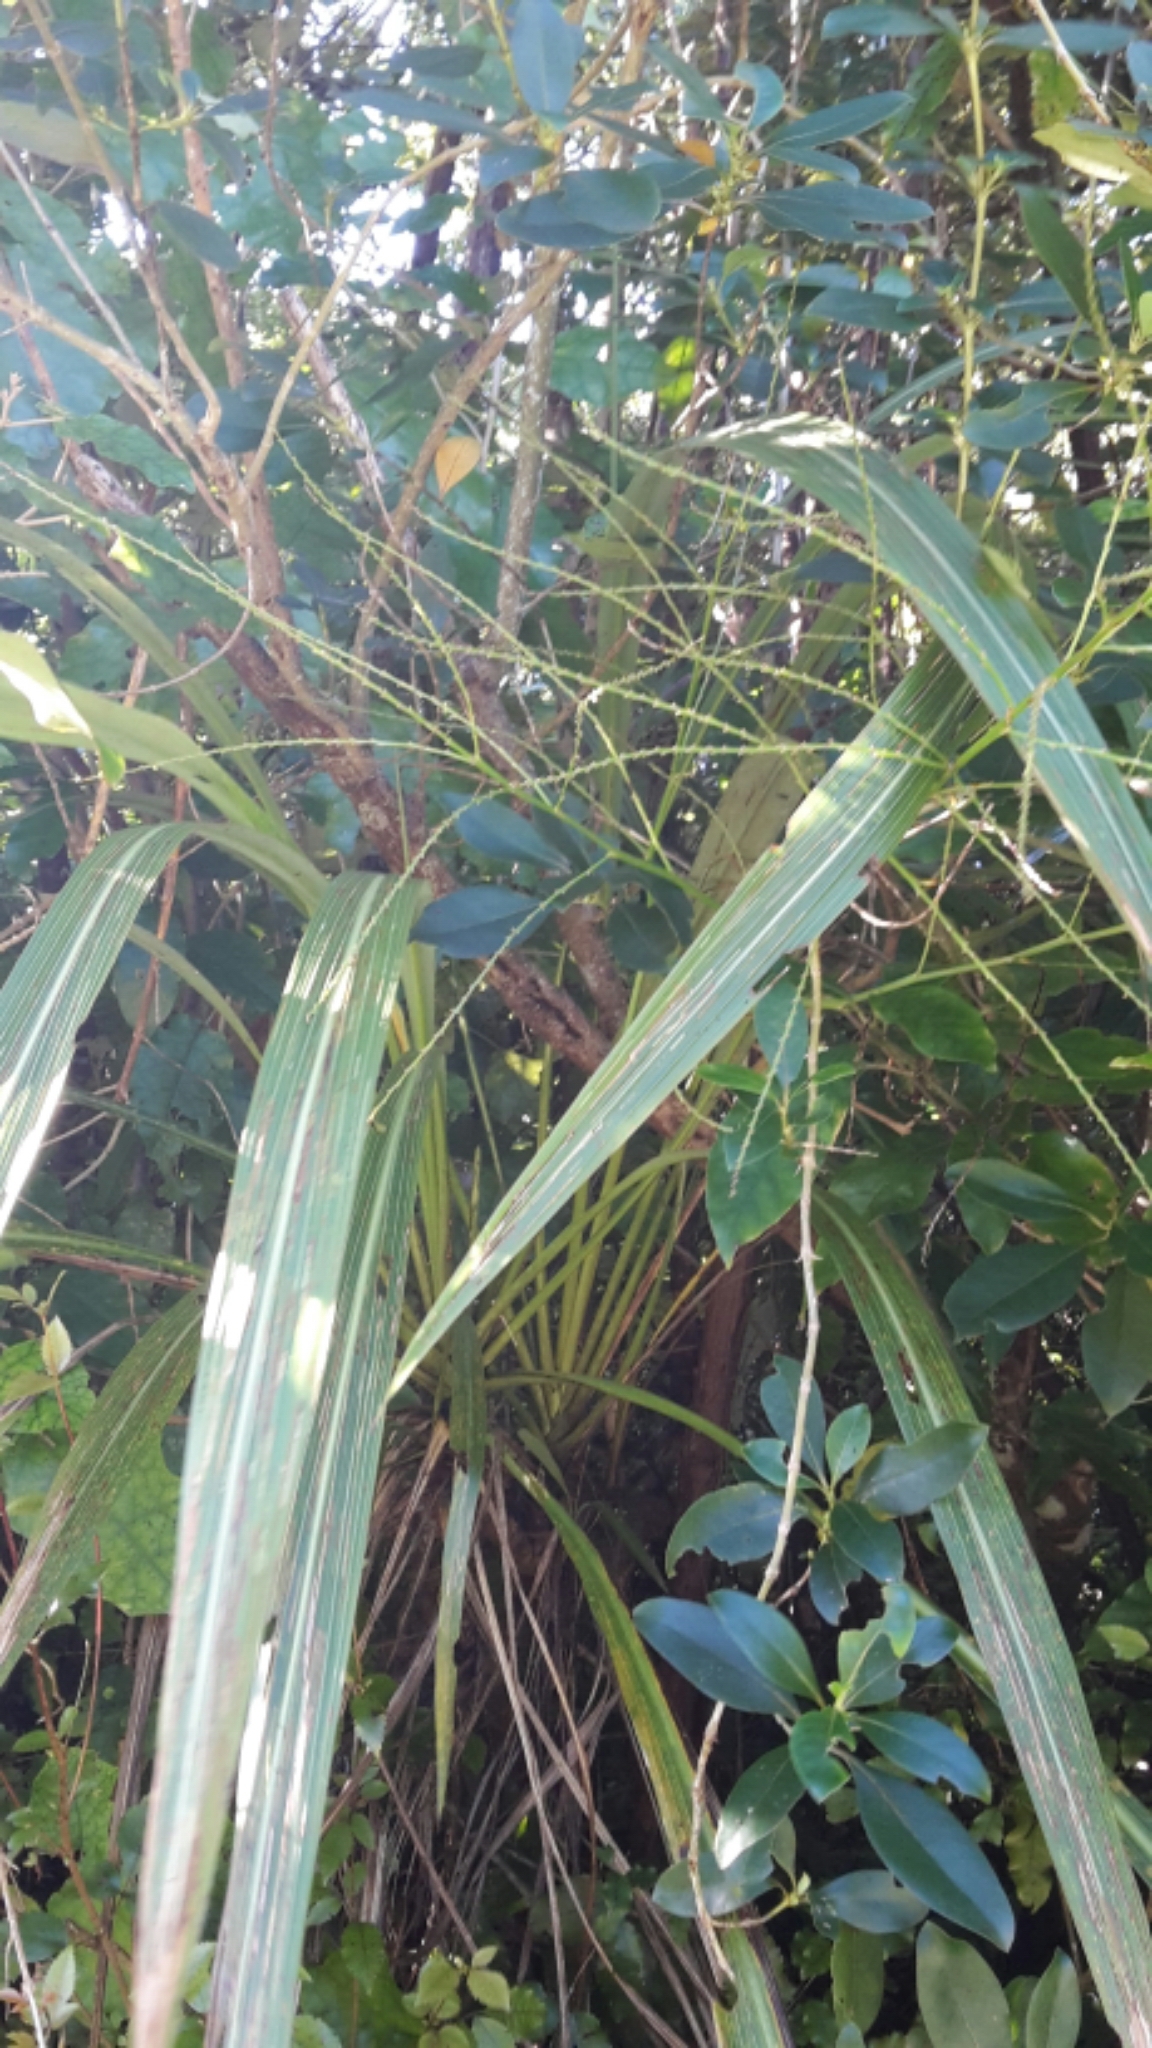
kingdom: Plantae
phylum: Tracheophyta
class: Liliopsida
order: Asparagales
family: Asparagaceae
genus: Cordyline
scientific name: Cordyline banksii
